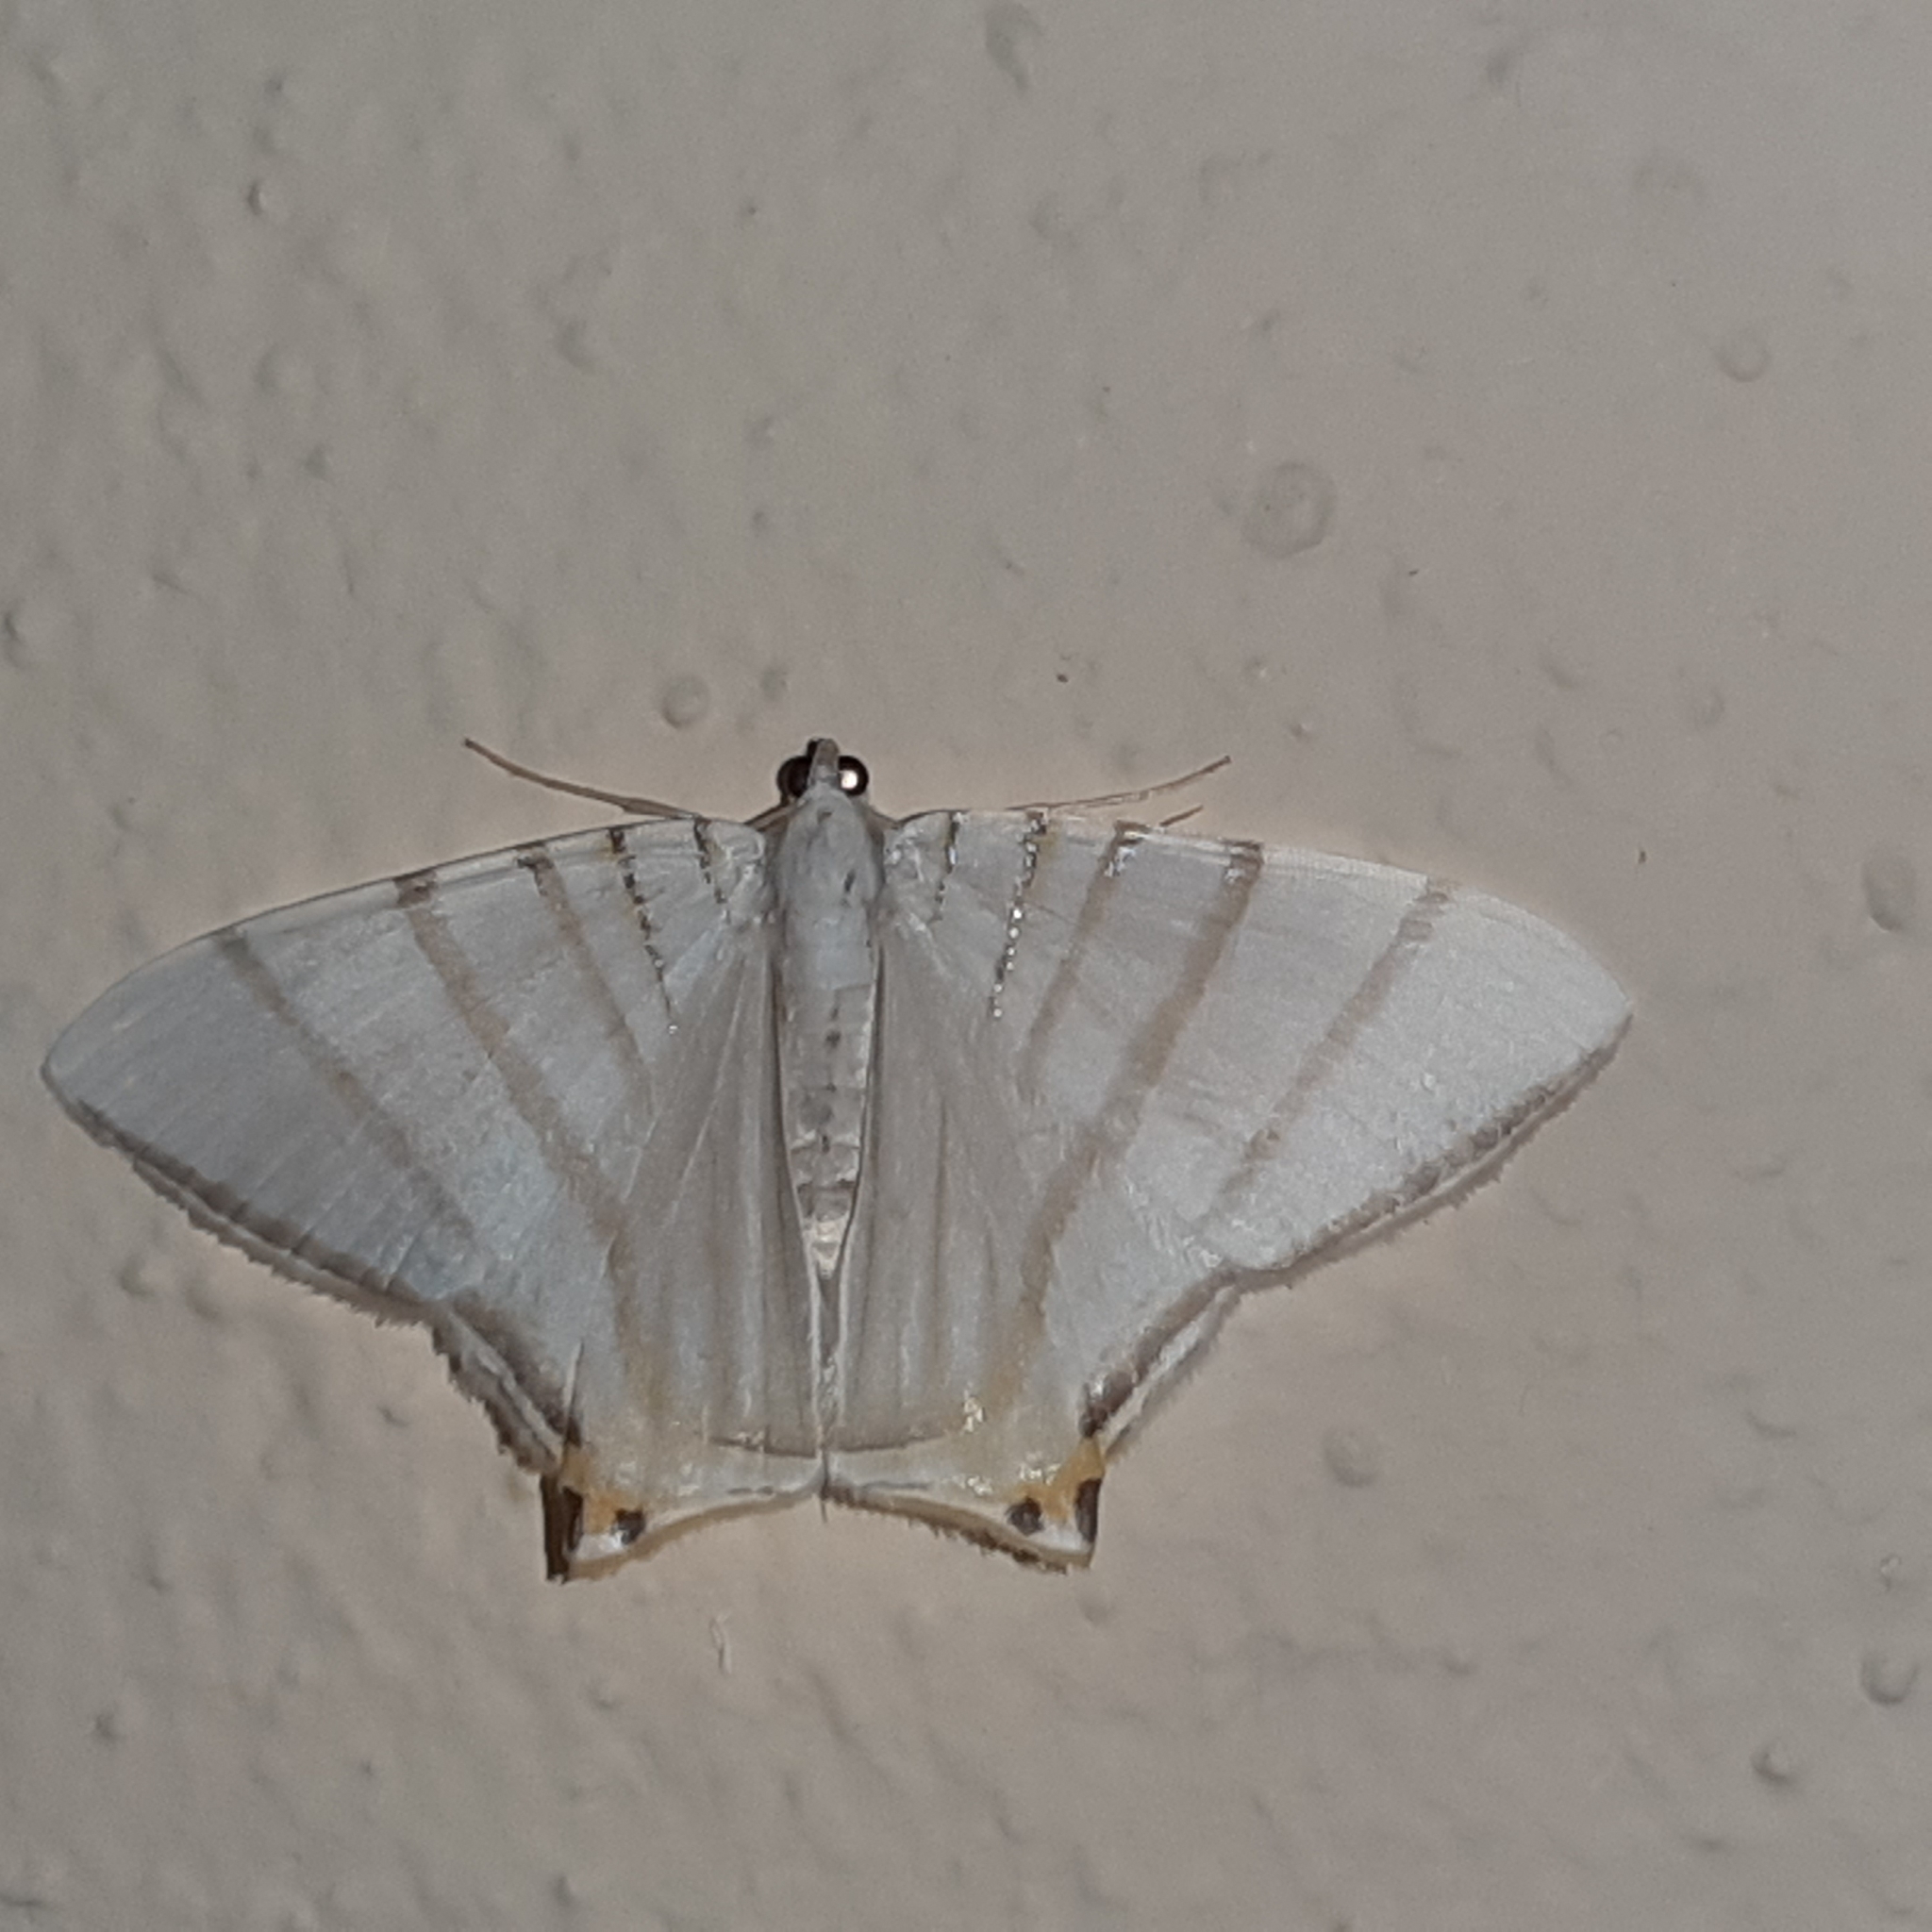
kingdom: Animalia
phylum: Arthropoda
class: Insecta
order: Lepidoptera
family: Geometridae
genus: Phrygionis
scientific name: Phrygionis platinata
